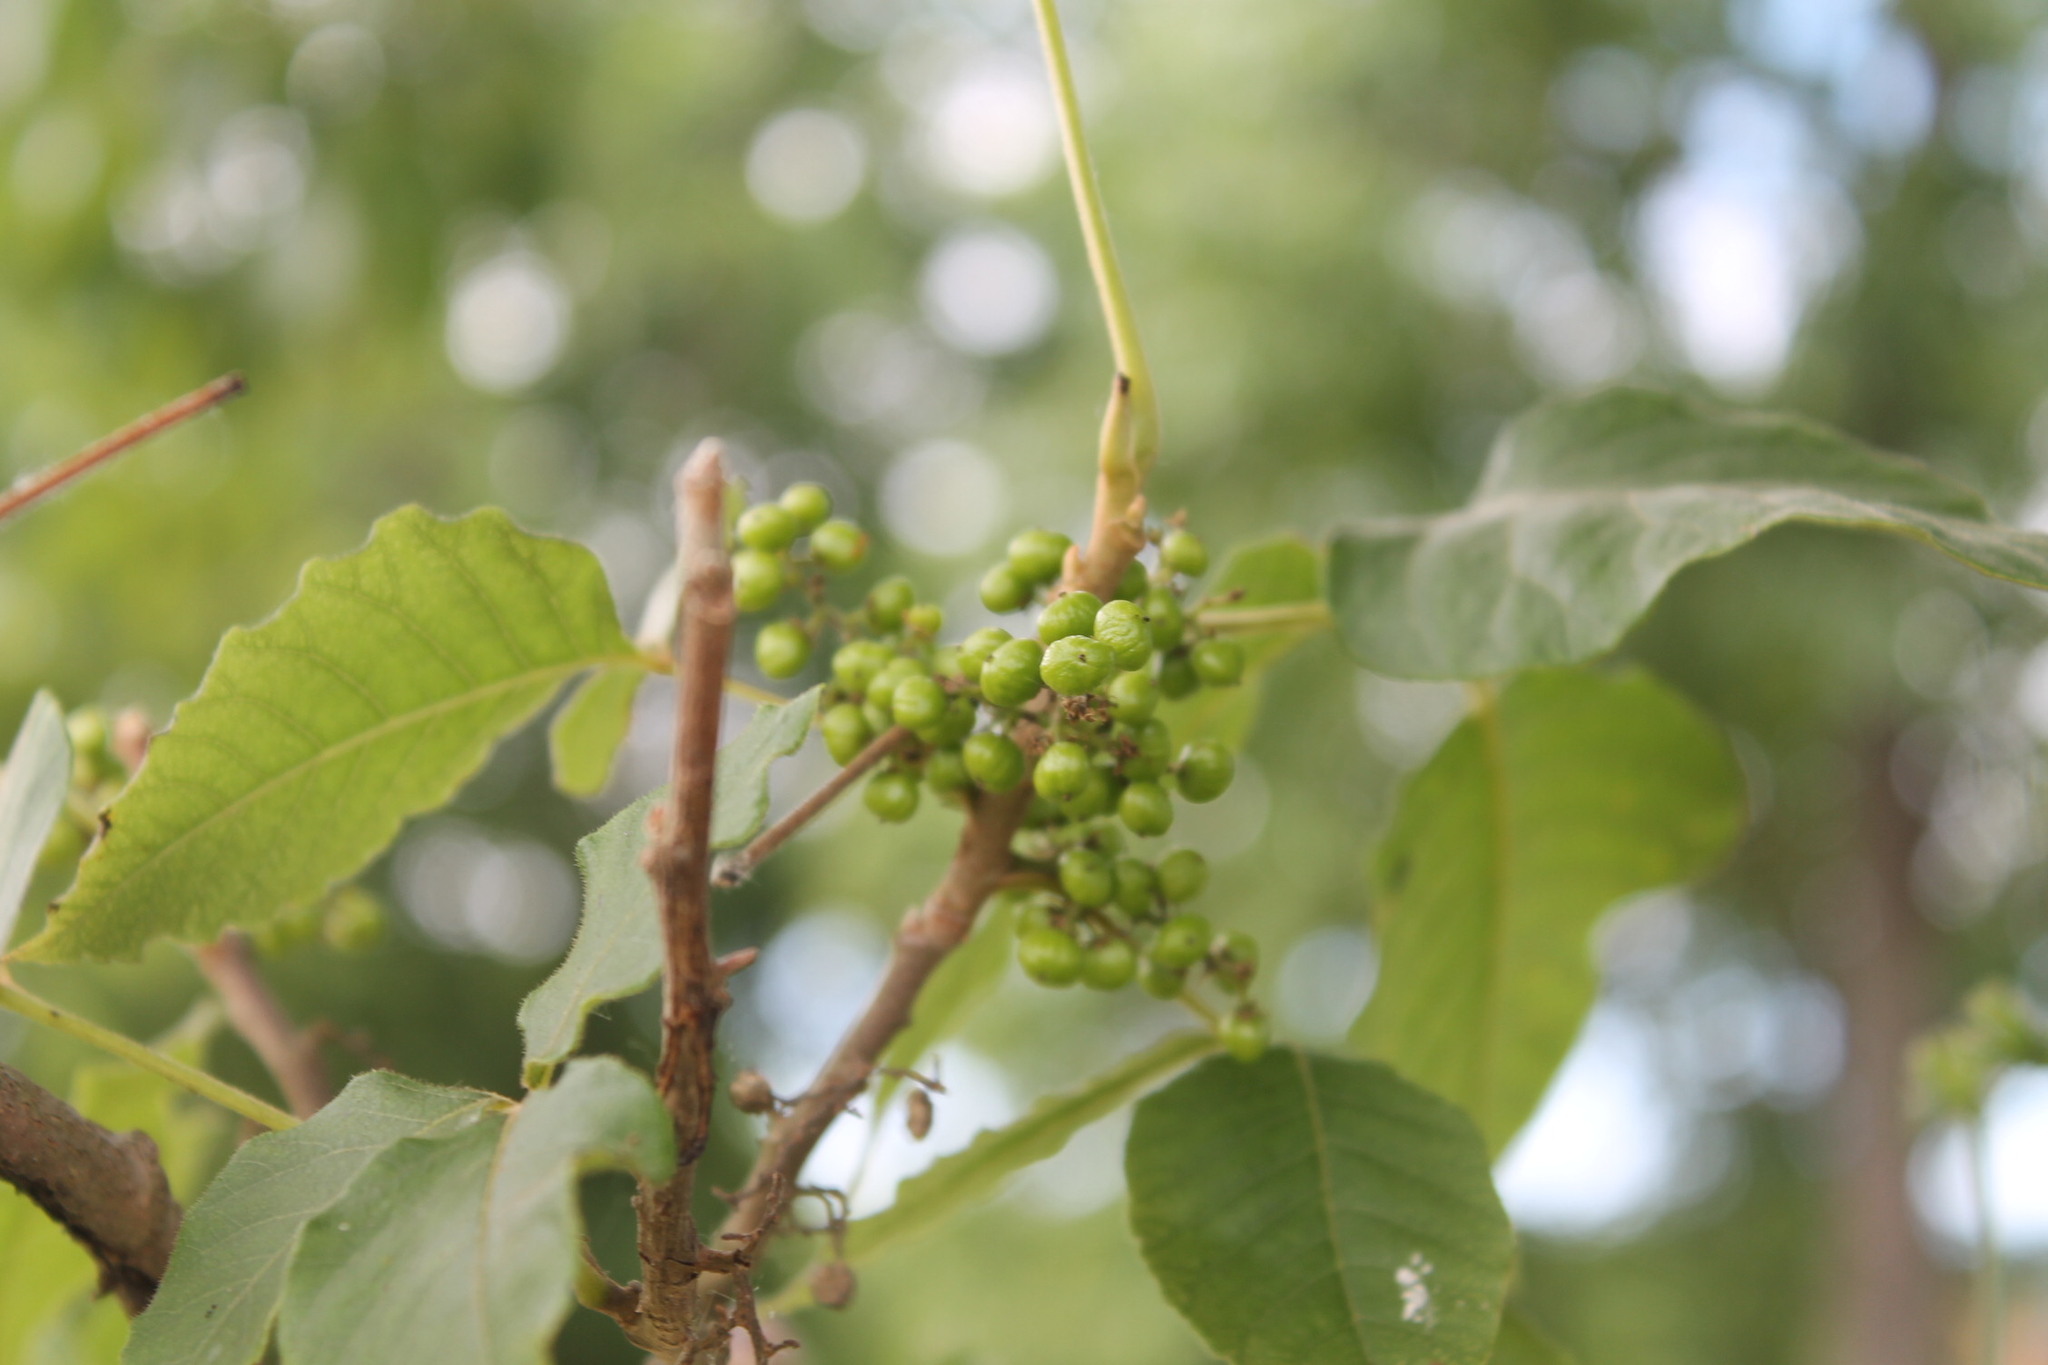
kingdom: Plantae
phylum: Tracheophyta
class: Magnoliopsida
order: Sapindales
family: Anacardiaceae
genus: Toxicodendron
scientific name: Toxicodendron radicans
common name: Poison ivy
